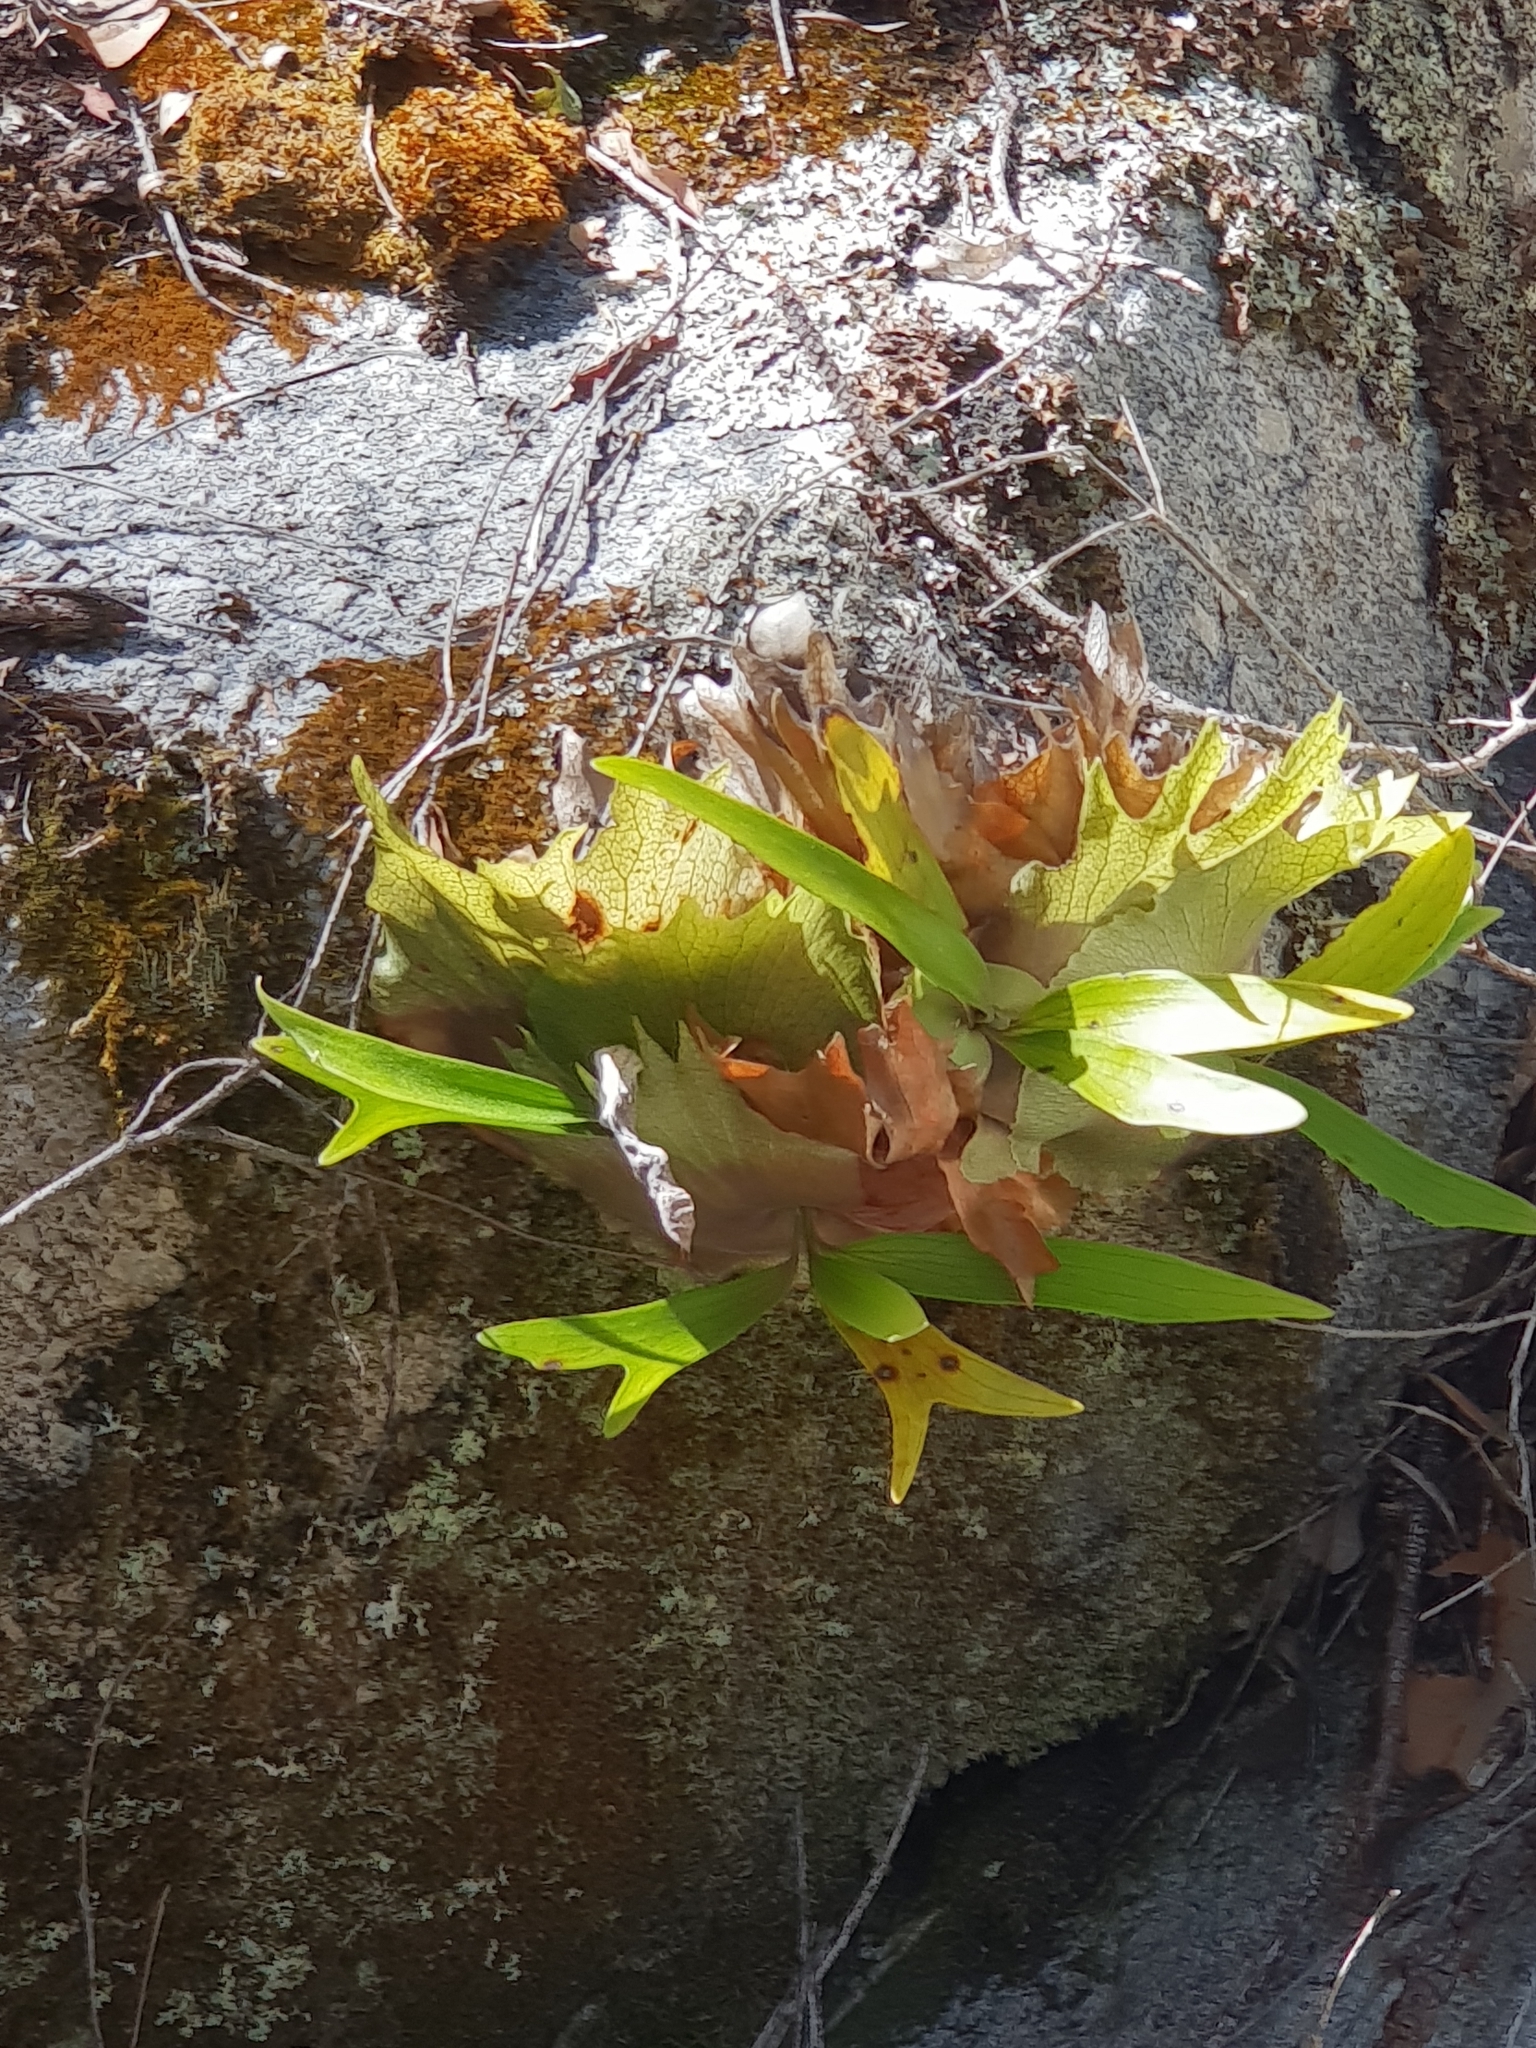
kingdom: Plantae
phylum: Tracheophyta
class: Polypodiopsida
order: Polypodiales
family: Polypodiaceae
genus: Platycerium
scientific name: Platycerium bifurcatum
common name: Elkhorn fern
